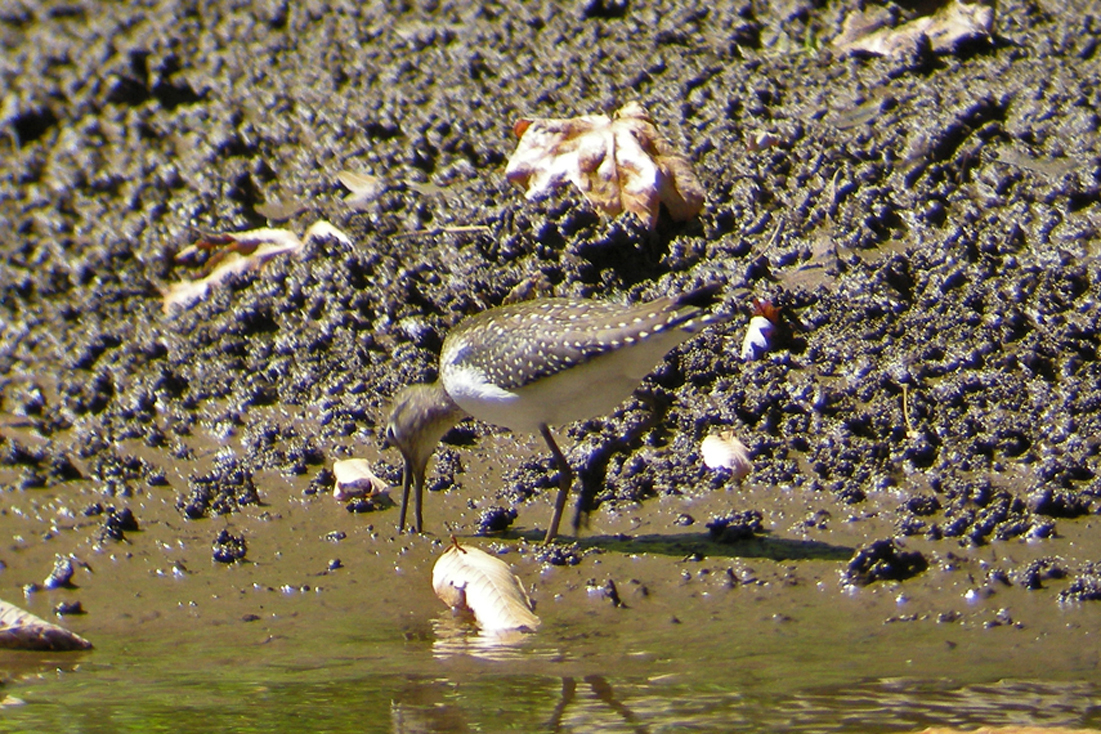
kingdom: Animalia
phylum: Chordata
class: Aves
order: Charadriiformes
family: Scolopacidae
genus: Tringa
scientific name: Tringa solitaria
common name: Solitary sandpiper
